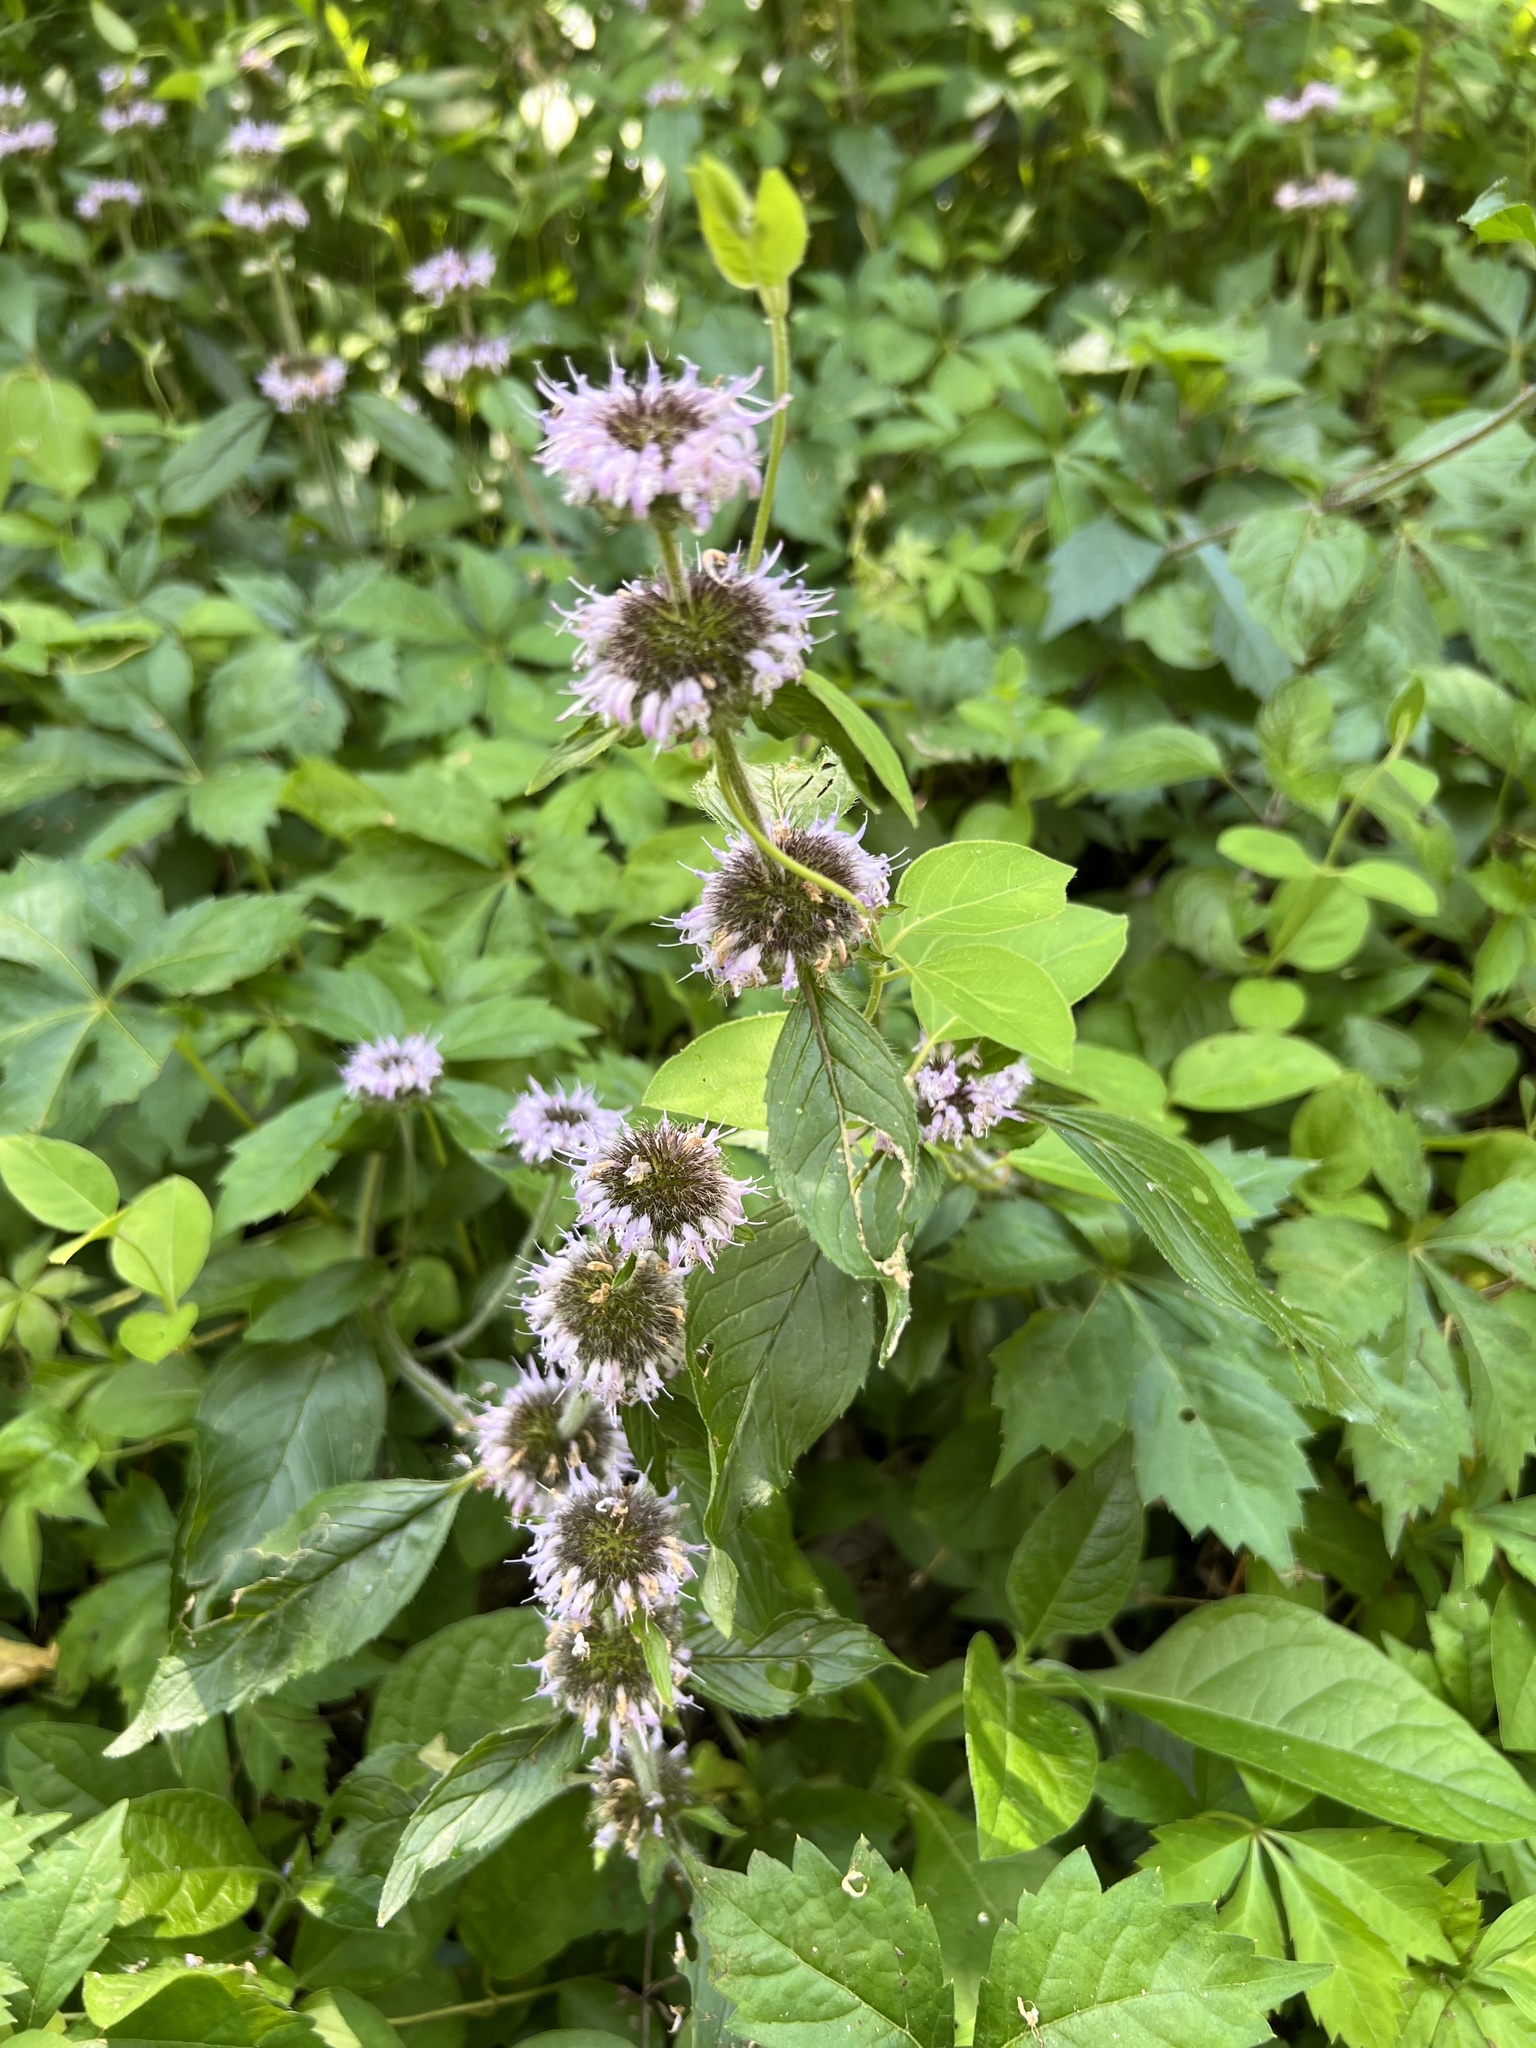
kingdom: Plantae
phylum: Tracheophyta
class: Magnoliopsida
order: Lamiales
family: Lamiaceae
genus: Blephilia
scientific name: Blephilia woffordii
